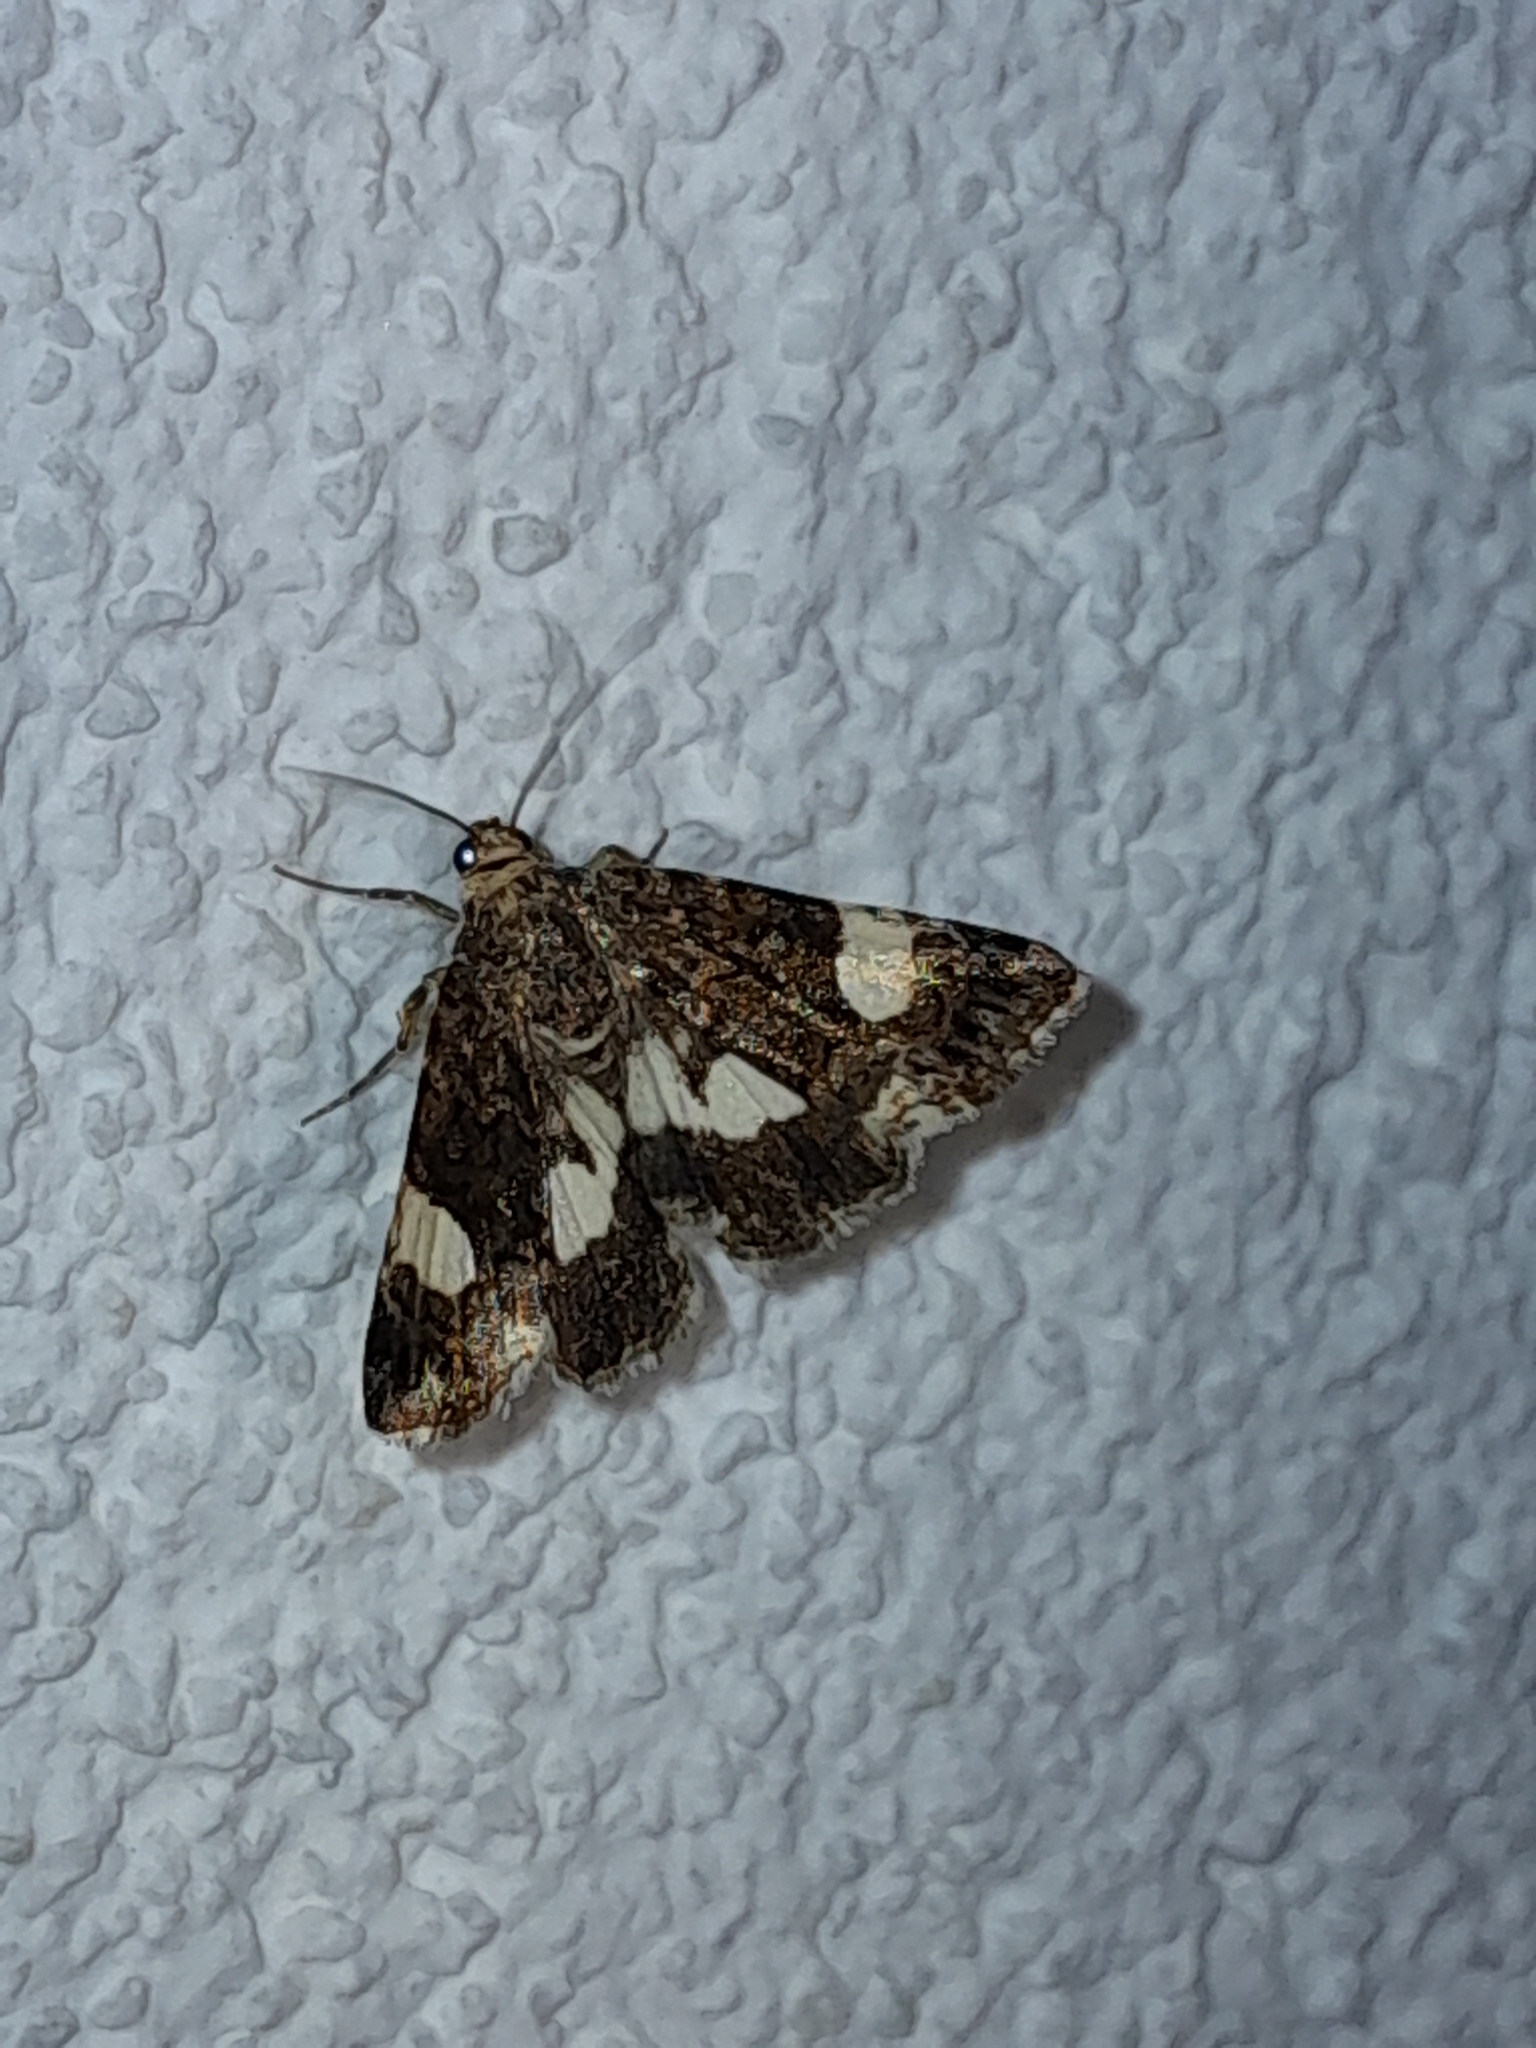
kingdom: Animalia
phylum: Arthropoda
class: Insecta
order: Lepidoptera
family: Erebidae
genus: Tyta
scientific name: Tyta luctuosa
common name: Four-spotted
